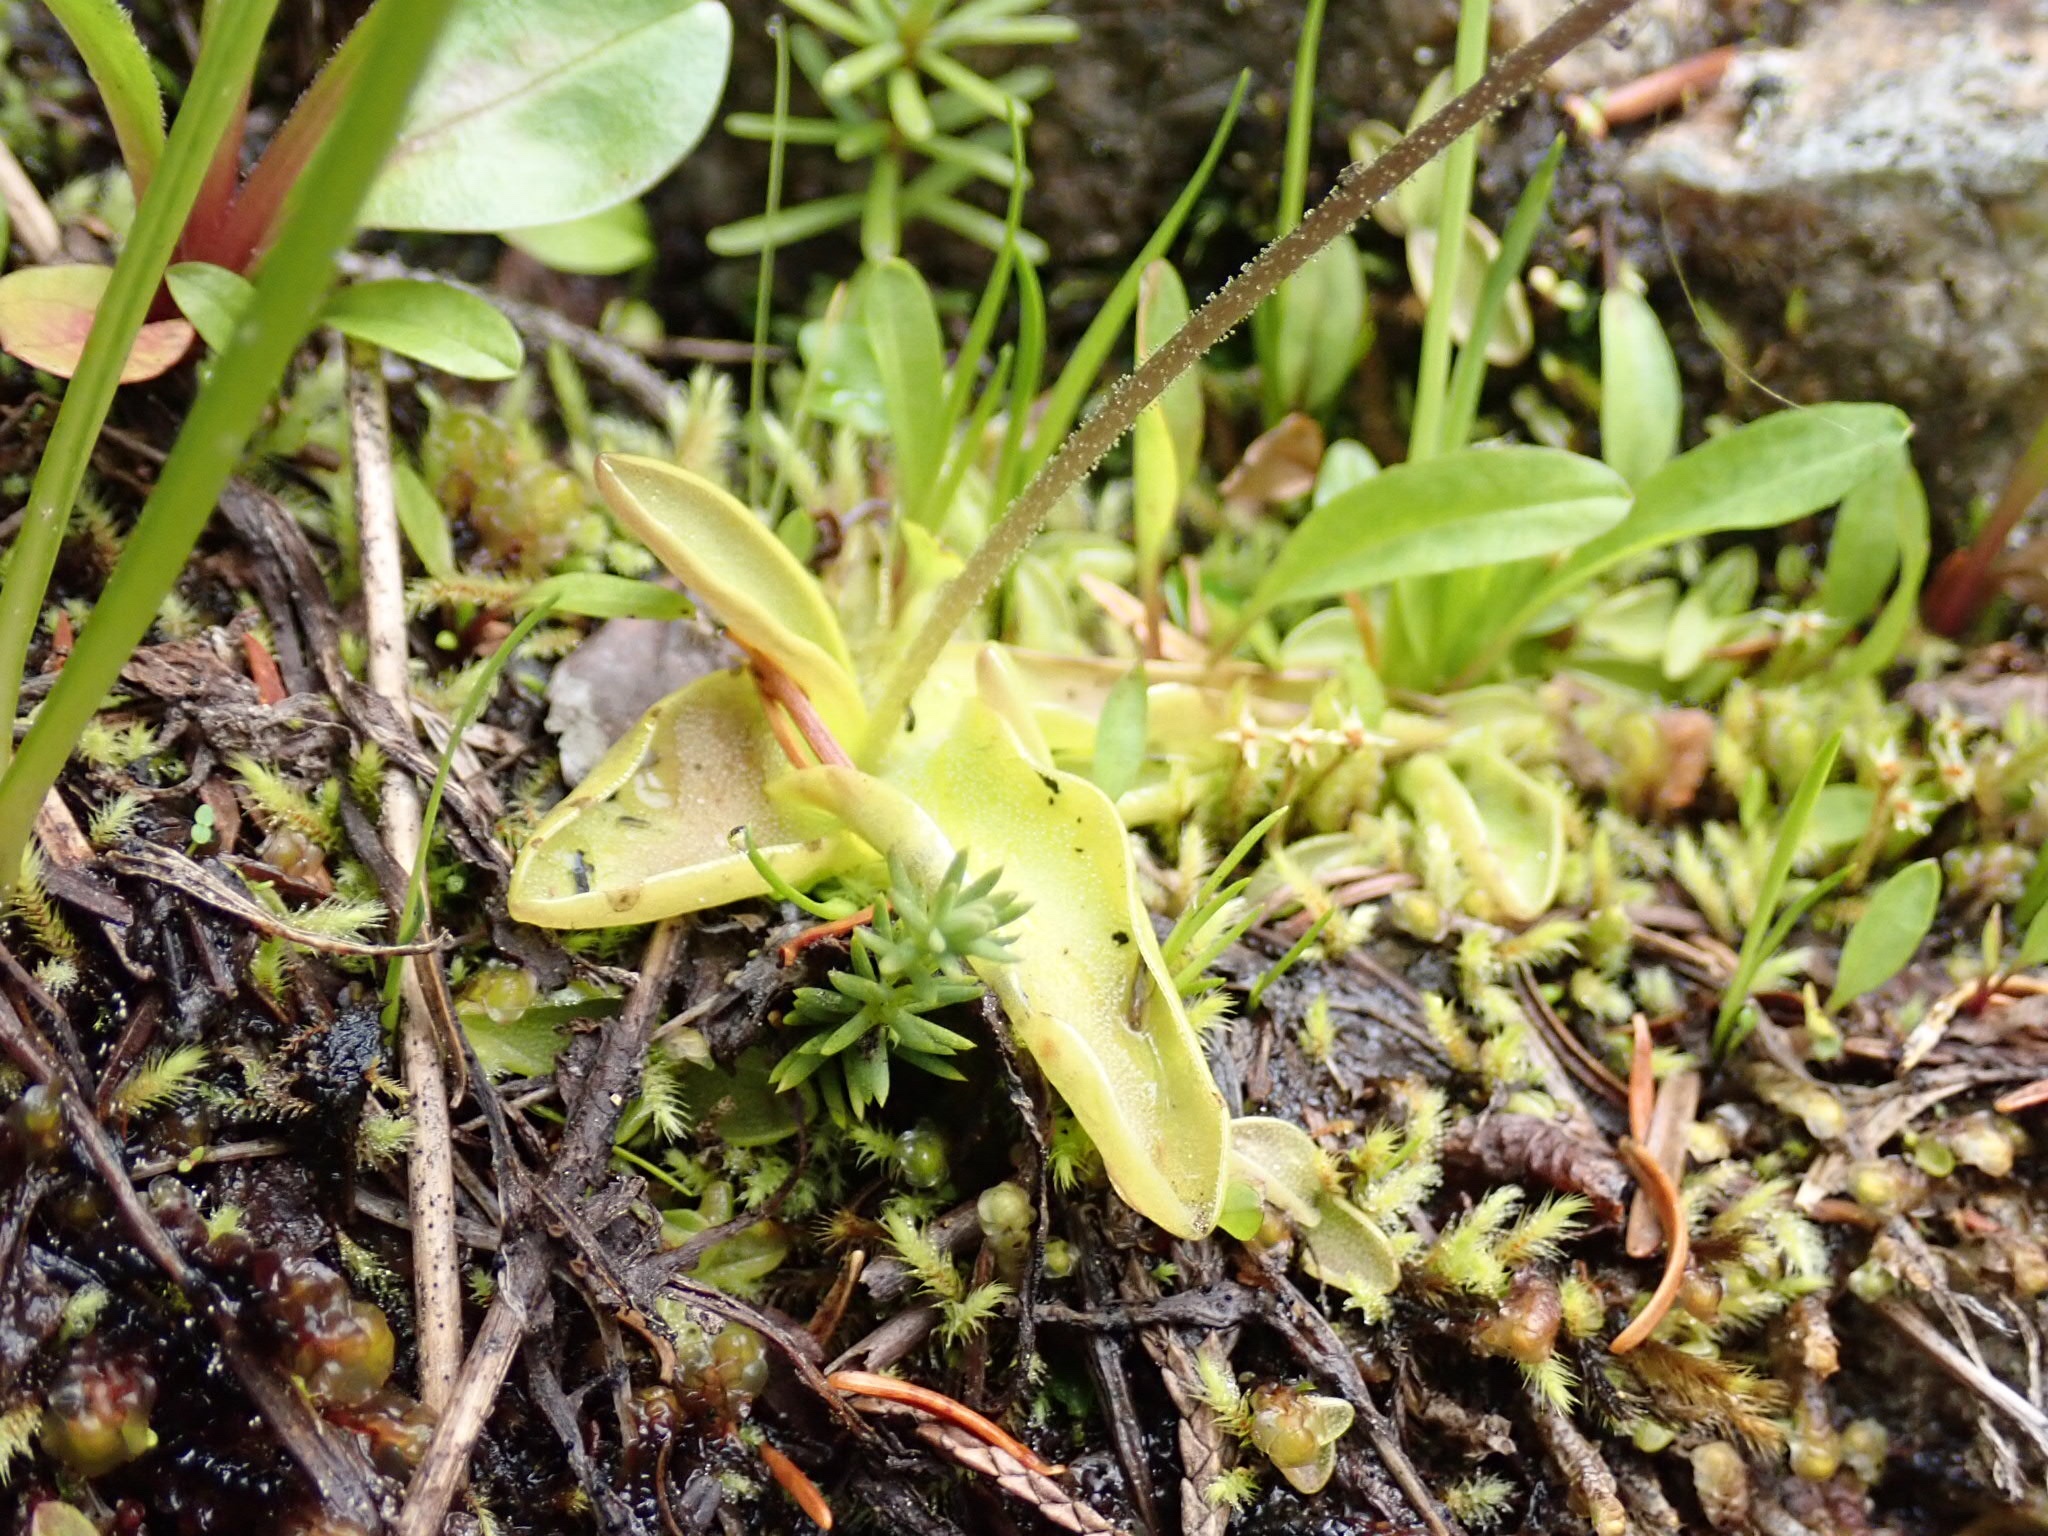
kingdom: Plantae
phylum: Tracheophyta
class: Magnoliopsida
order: Lamiales
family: Lentibulariaceae
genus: Pinguicula
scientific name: Pinguicula vulgaris
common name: Common butterwort
